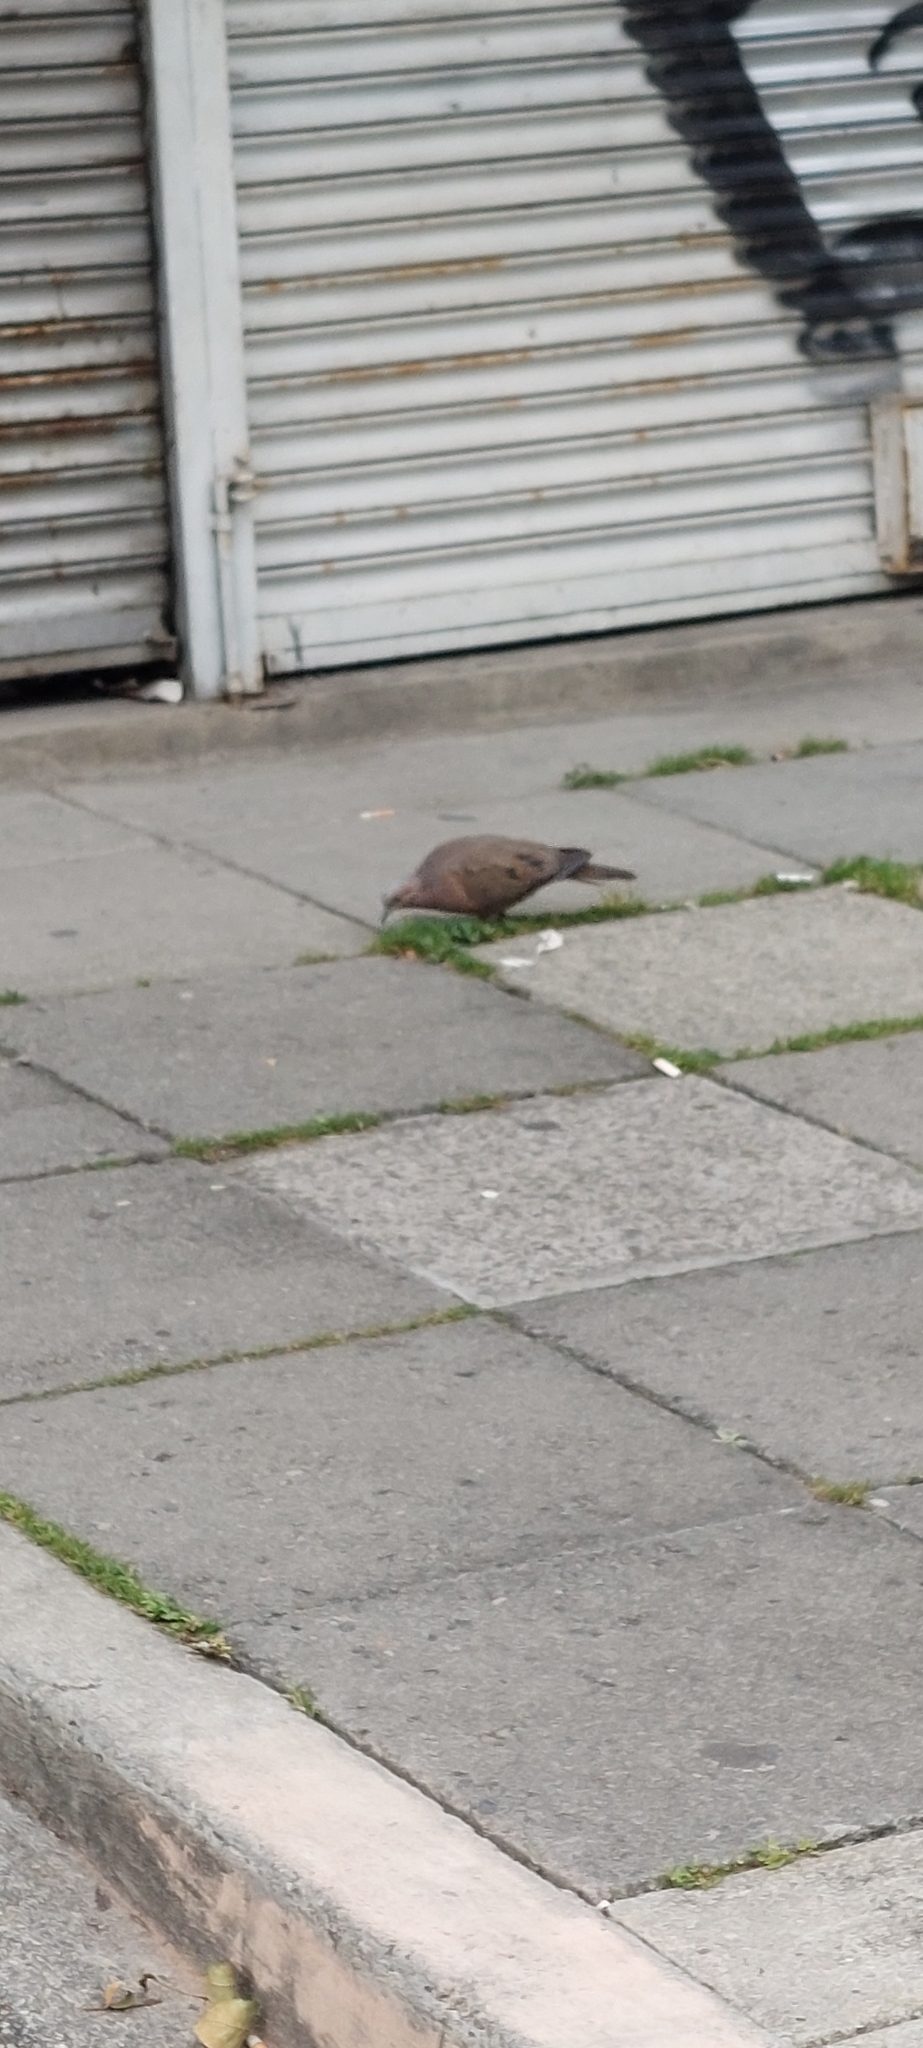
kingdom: Animalia
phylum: Chordata
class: Aves
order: Columbiformes
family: Columbidae
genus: Zenaida
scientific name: Zenaida auriculata
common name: Eared dove
